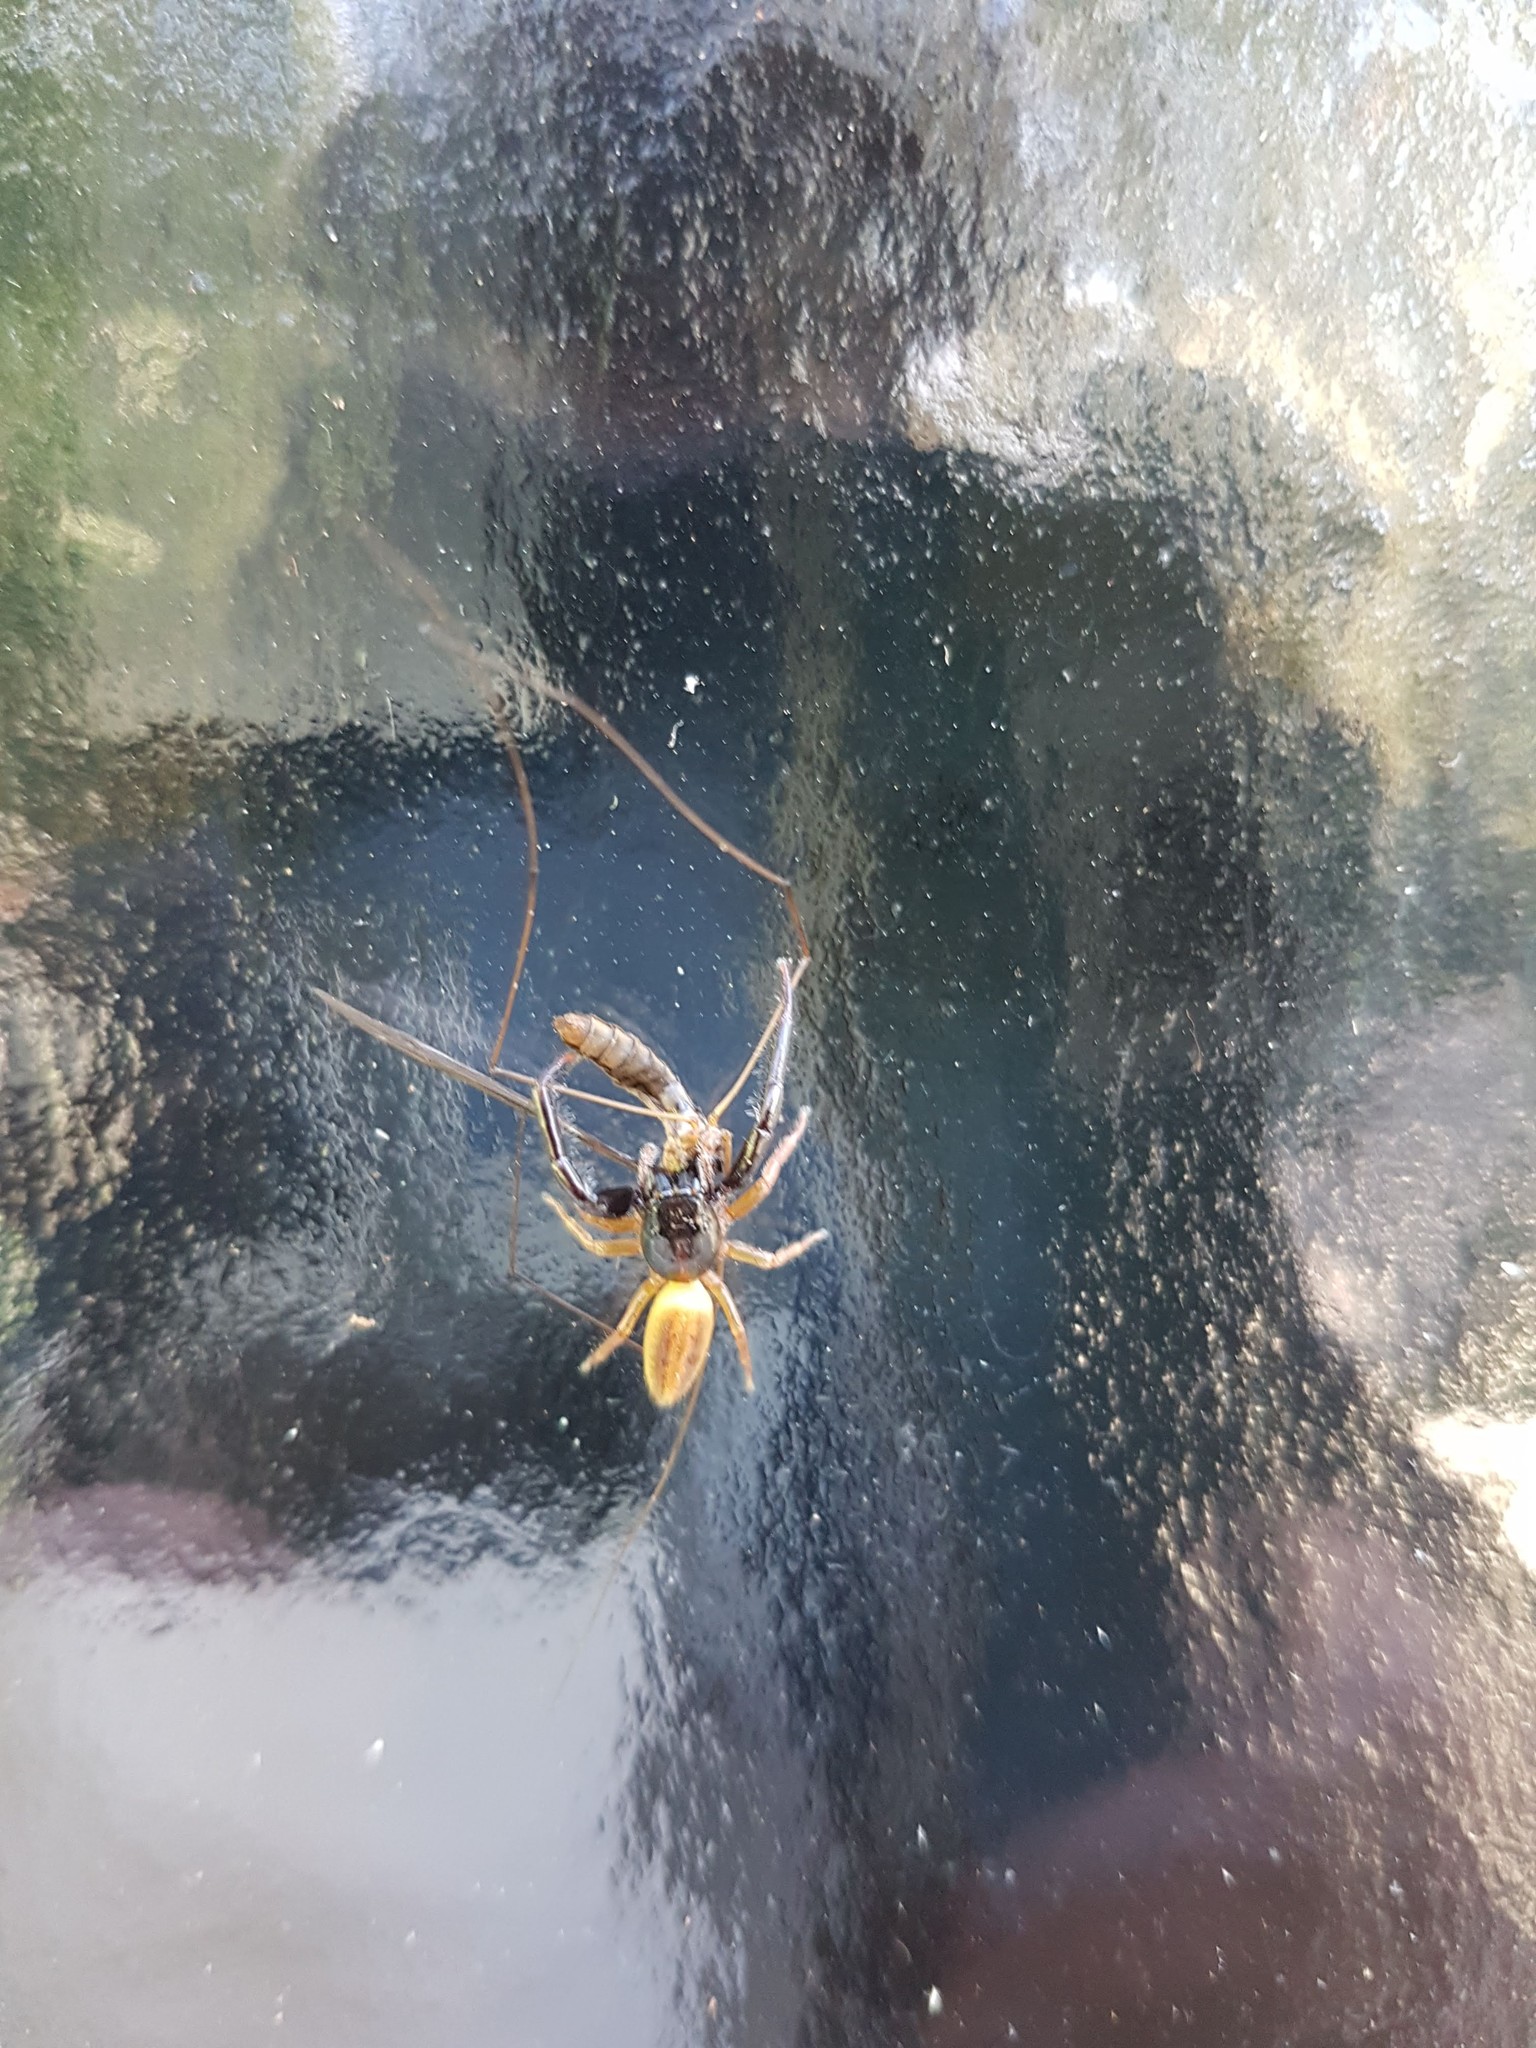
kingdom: Animalia
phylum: Arthropoda
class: Arachnida
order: Araneae
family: Salticidae
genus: Trite
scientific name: Trite planiceps
